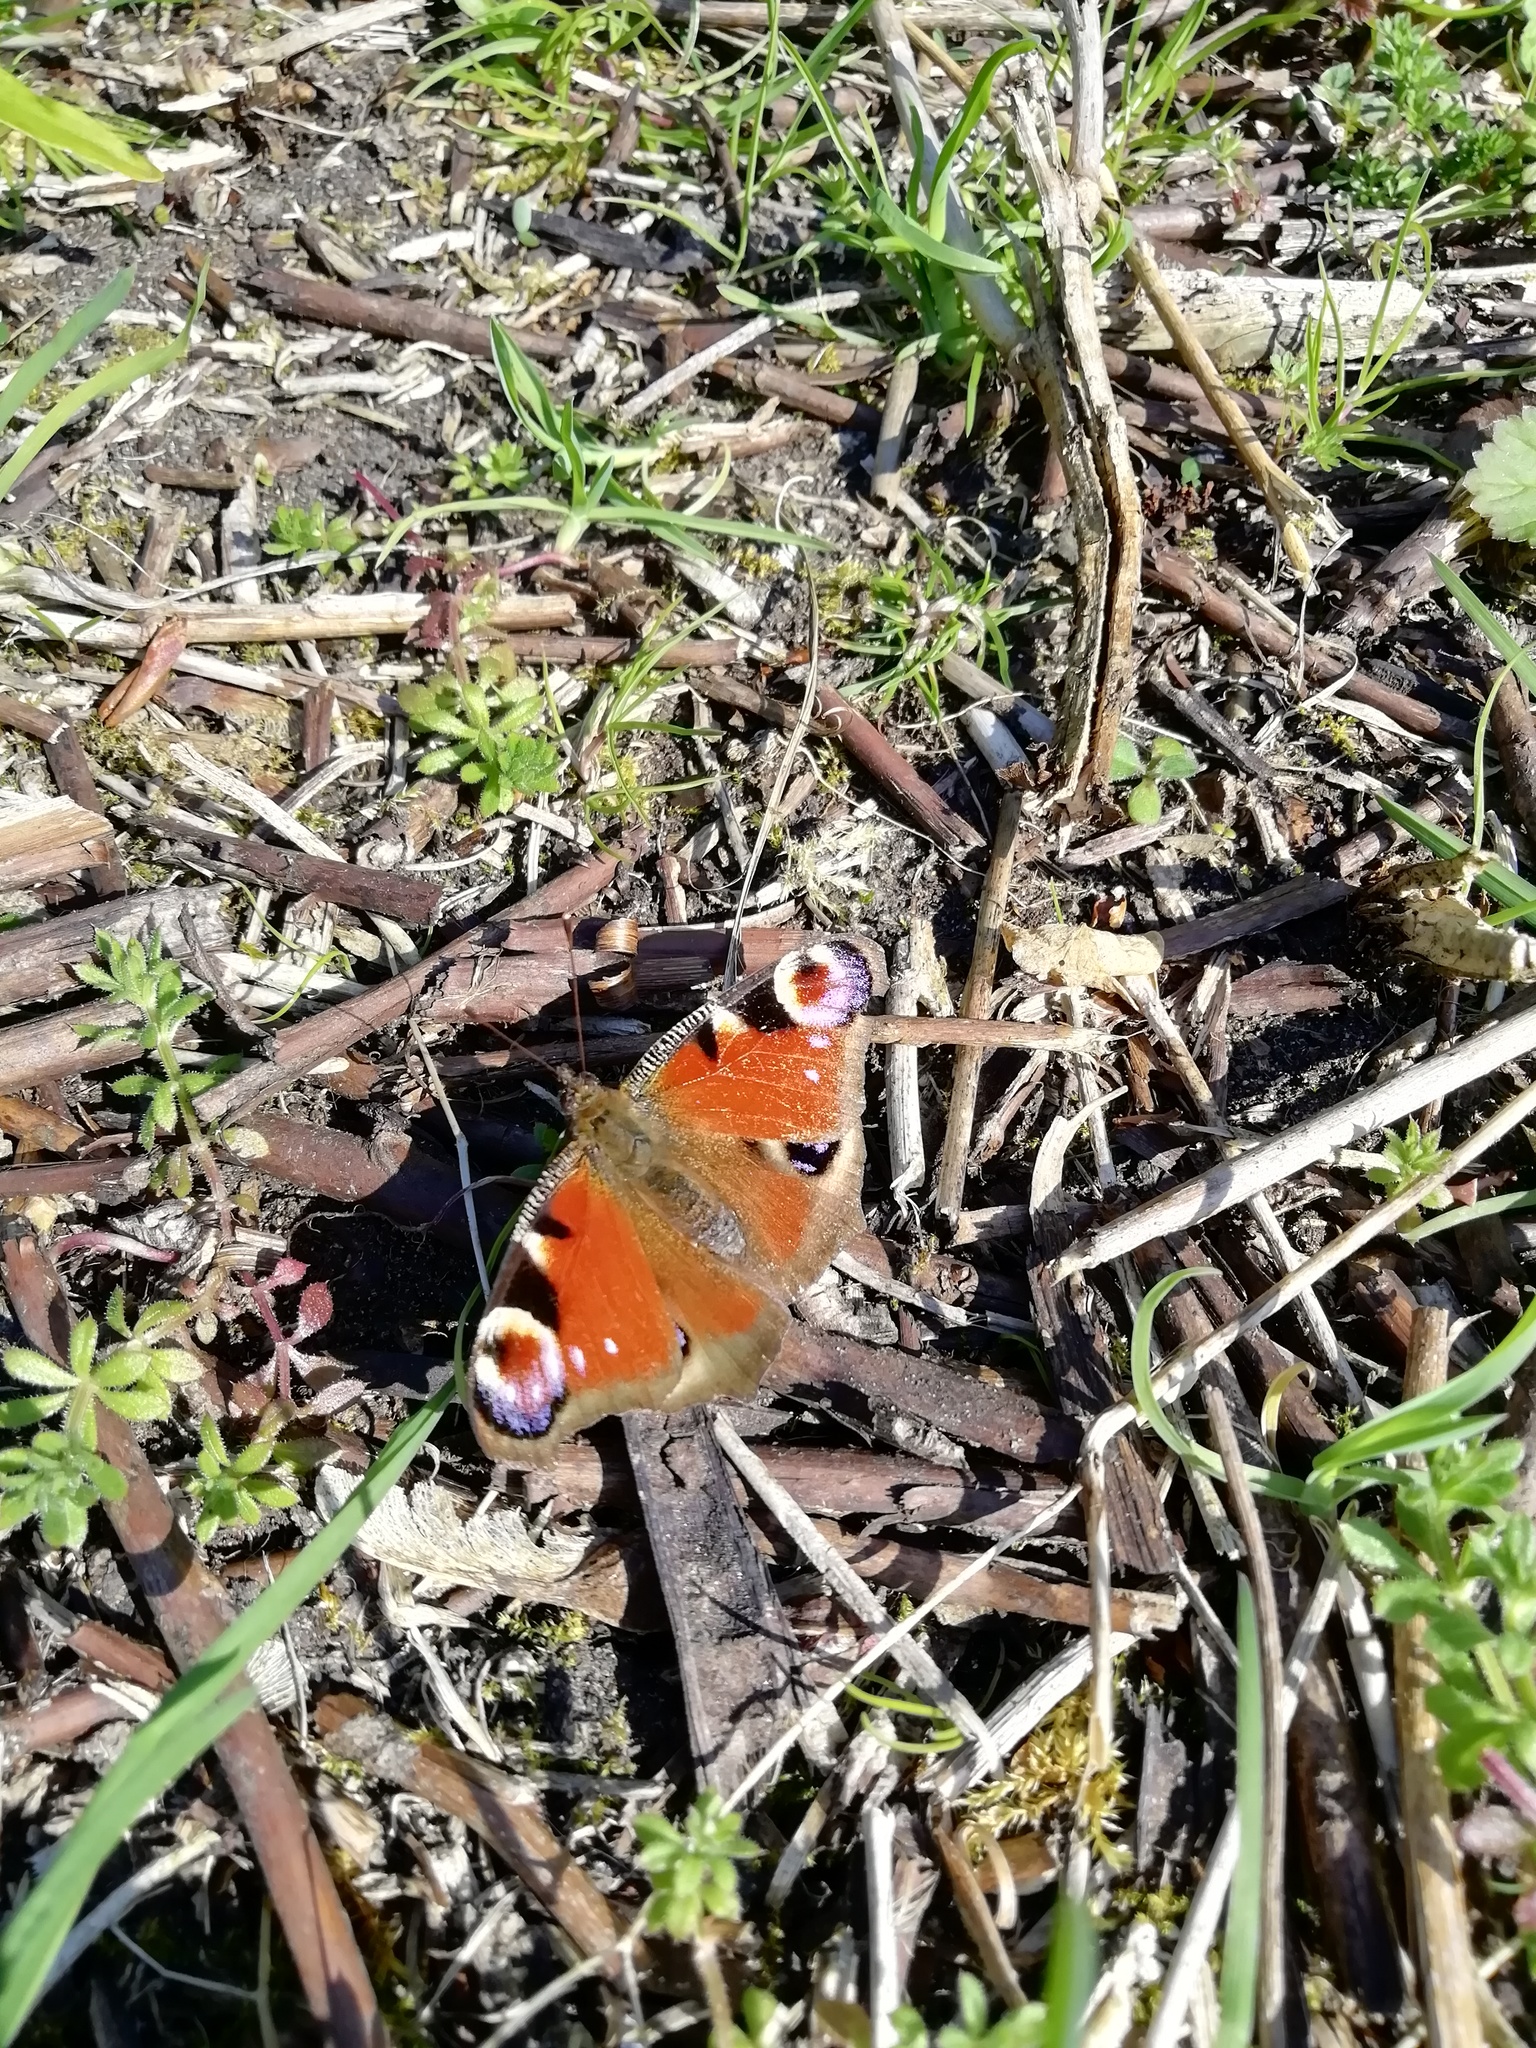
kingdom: Animalia
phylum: Arthropoda
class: Insecta
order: Lepidoptera
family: Nymphalidae
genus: Aglais
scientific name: Aglais io
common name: Peacock
